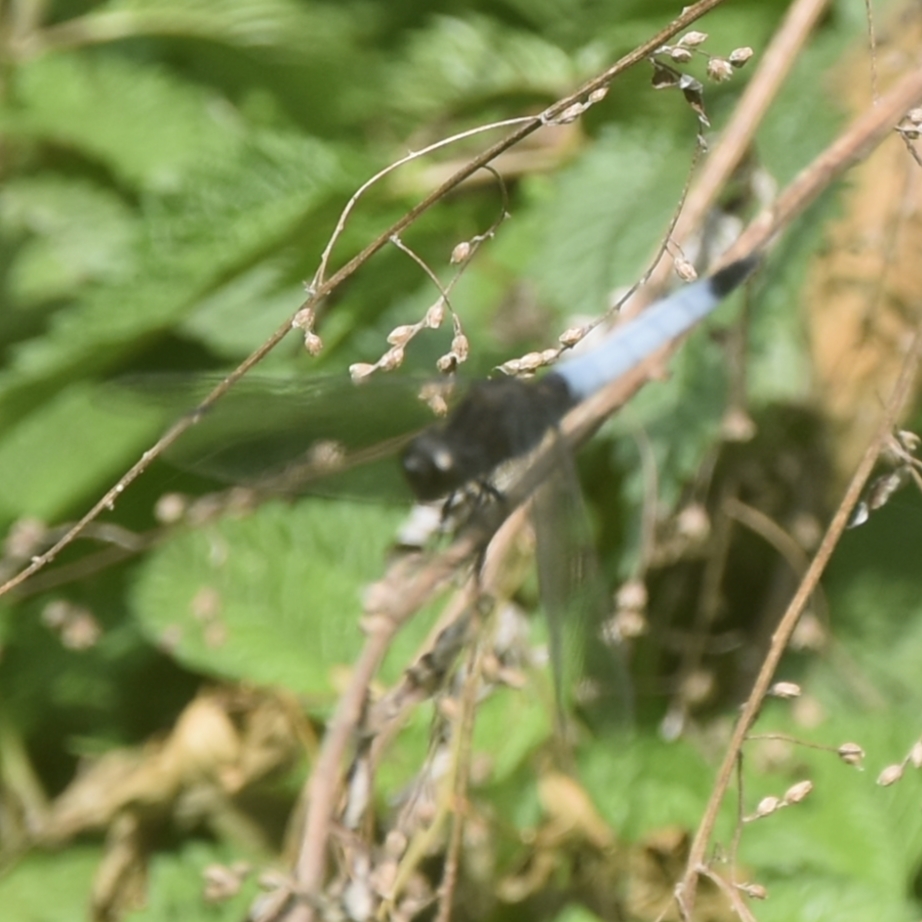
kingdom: Animalia
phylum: Arthropoda
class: Insecta
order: Odonata
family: Libellulidae
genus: Orthetrum
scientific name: Orthetrum triangulare
